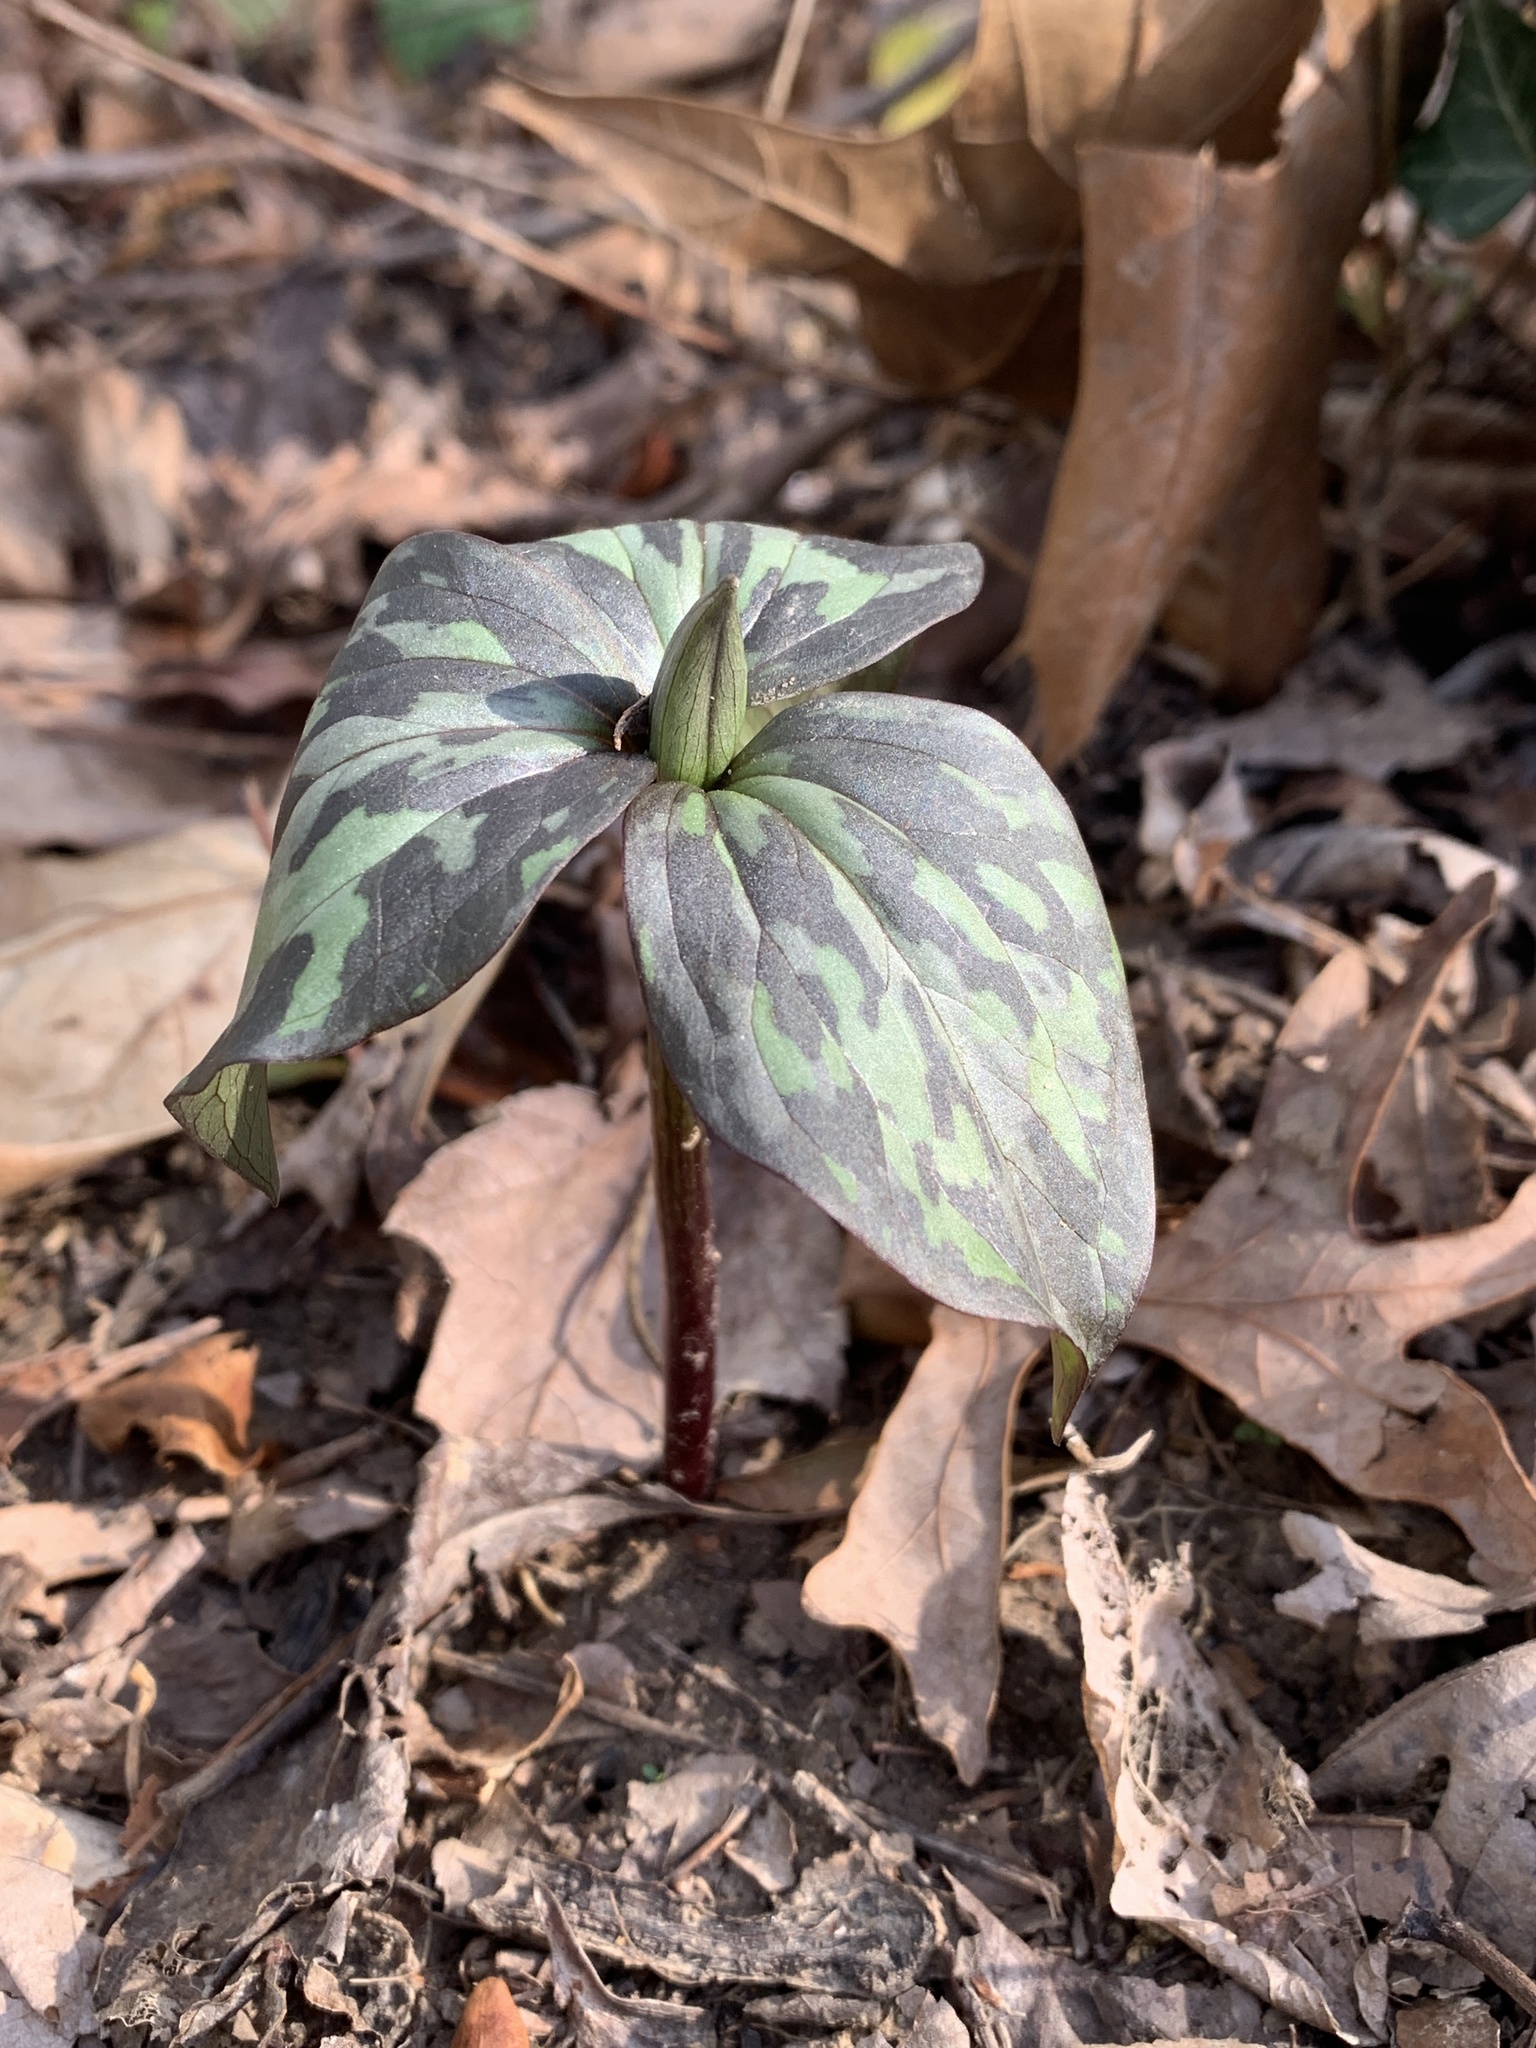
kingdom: Plantae
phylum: Tracheophyta
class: Liliopsida
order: Liliales
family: Melanthiaceae
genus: Trillium
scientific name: Trillium recurvatum
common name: Bloody butcher
